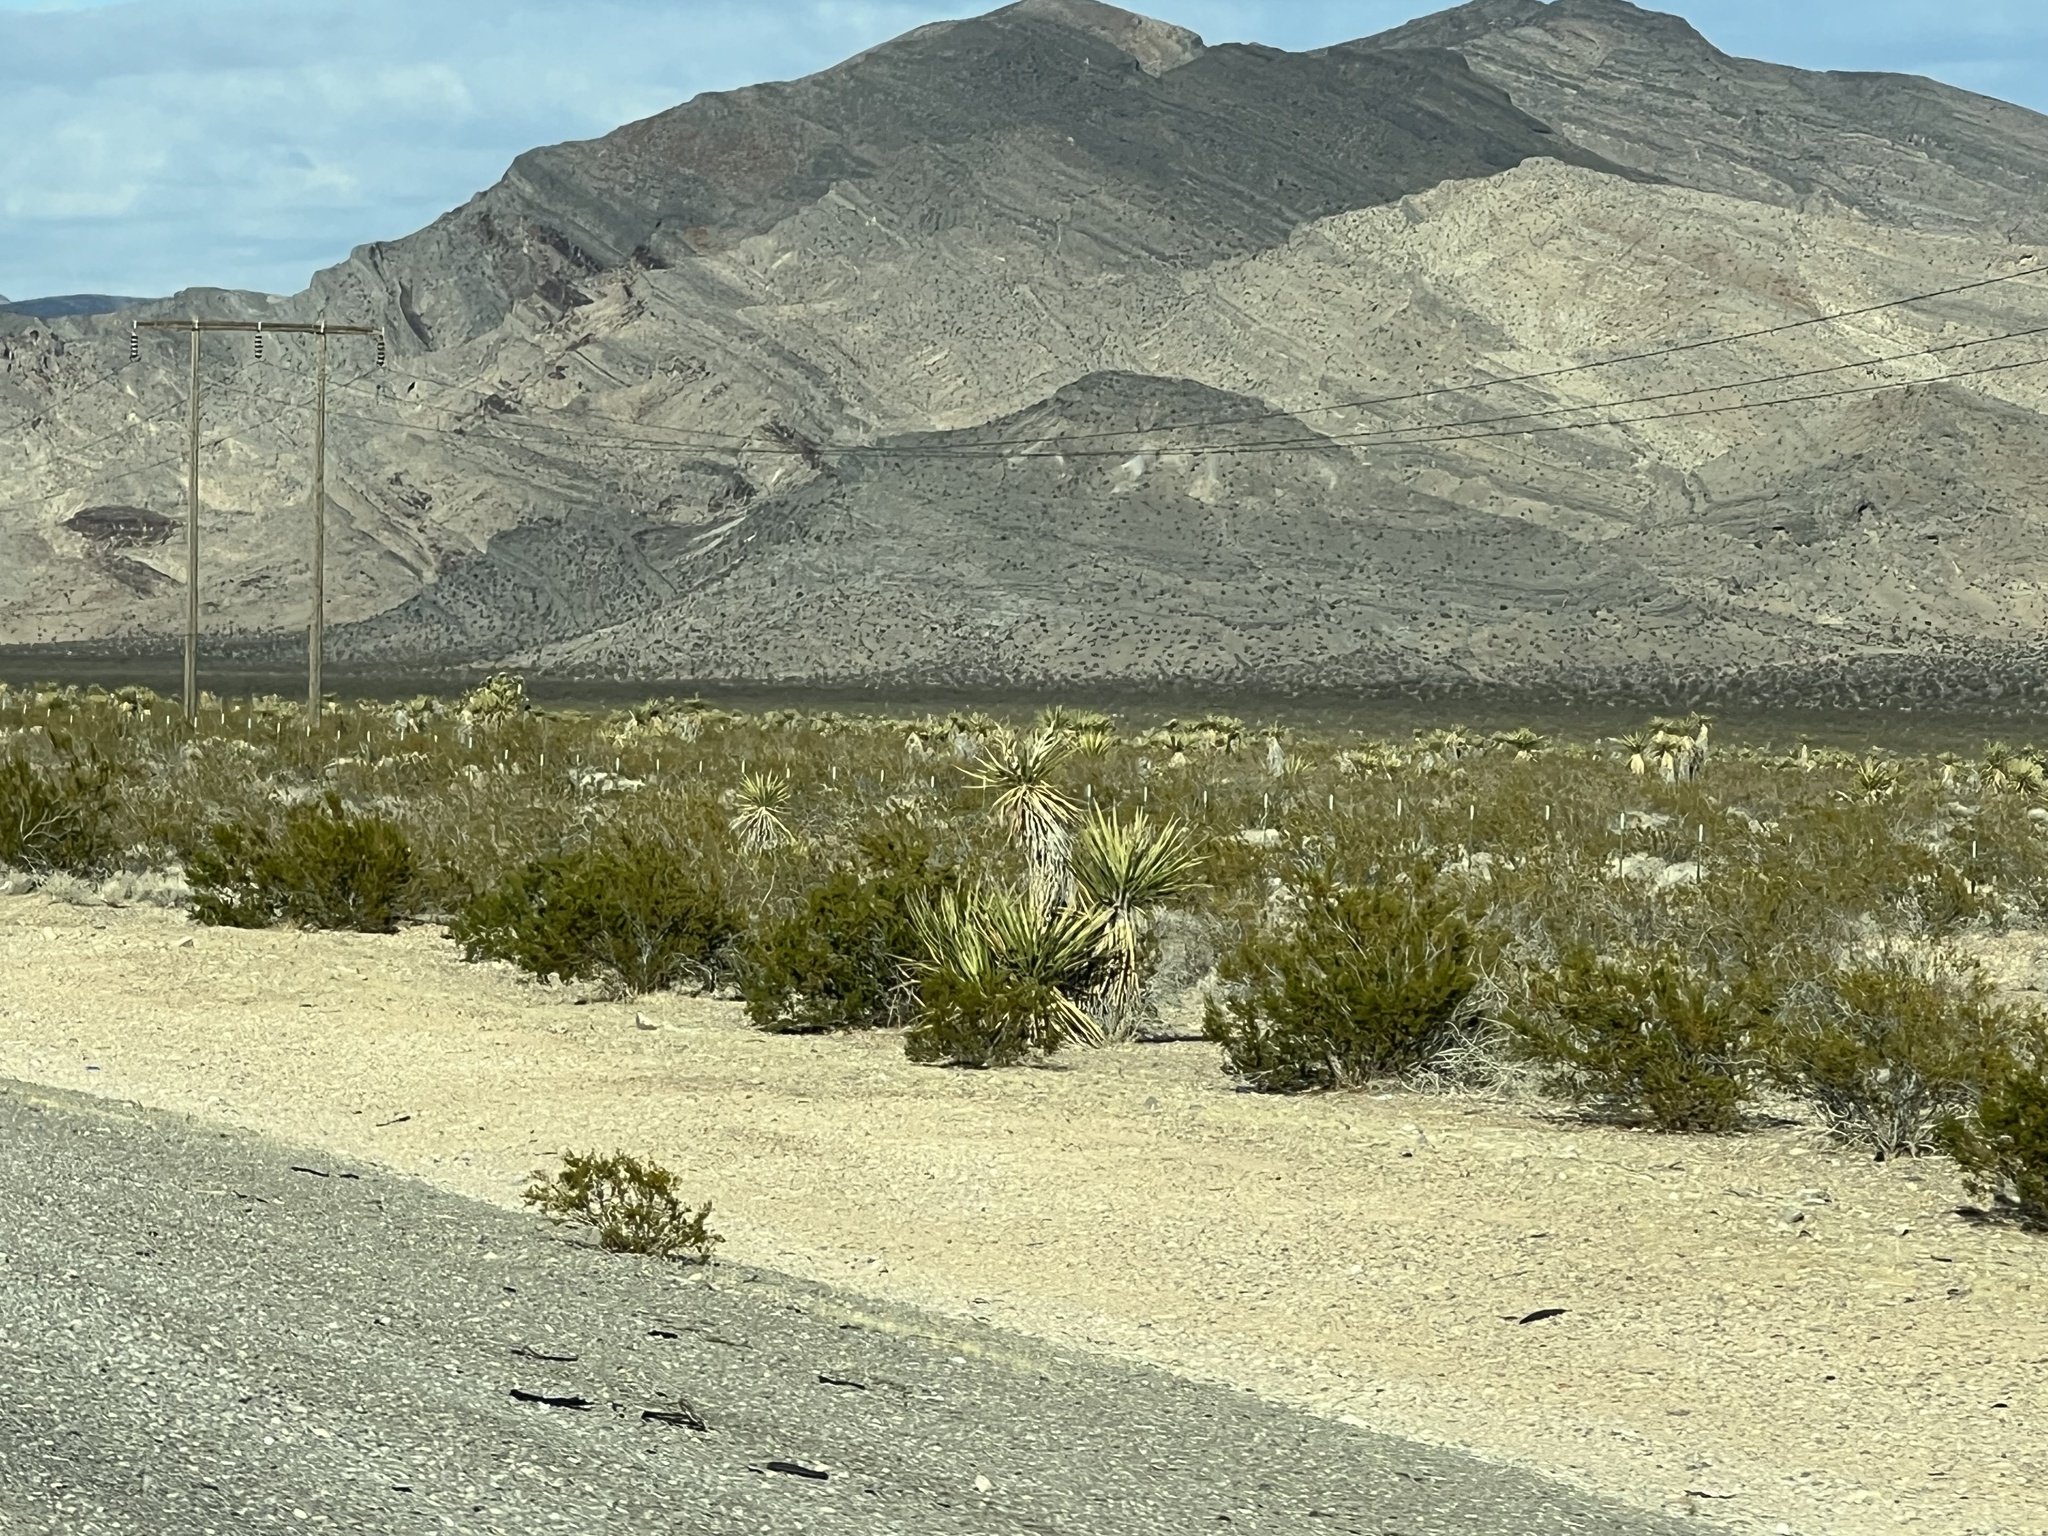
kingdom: Plantae
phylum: Tracheophyta
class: Liliopsida
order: Asparagales
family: Asparagaceae
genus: Yucca
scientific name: Yucca schidigera
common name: Mojave yucca
